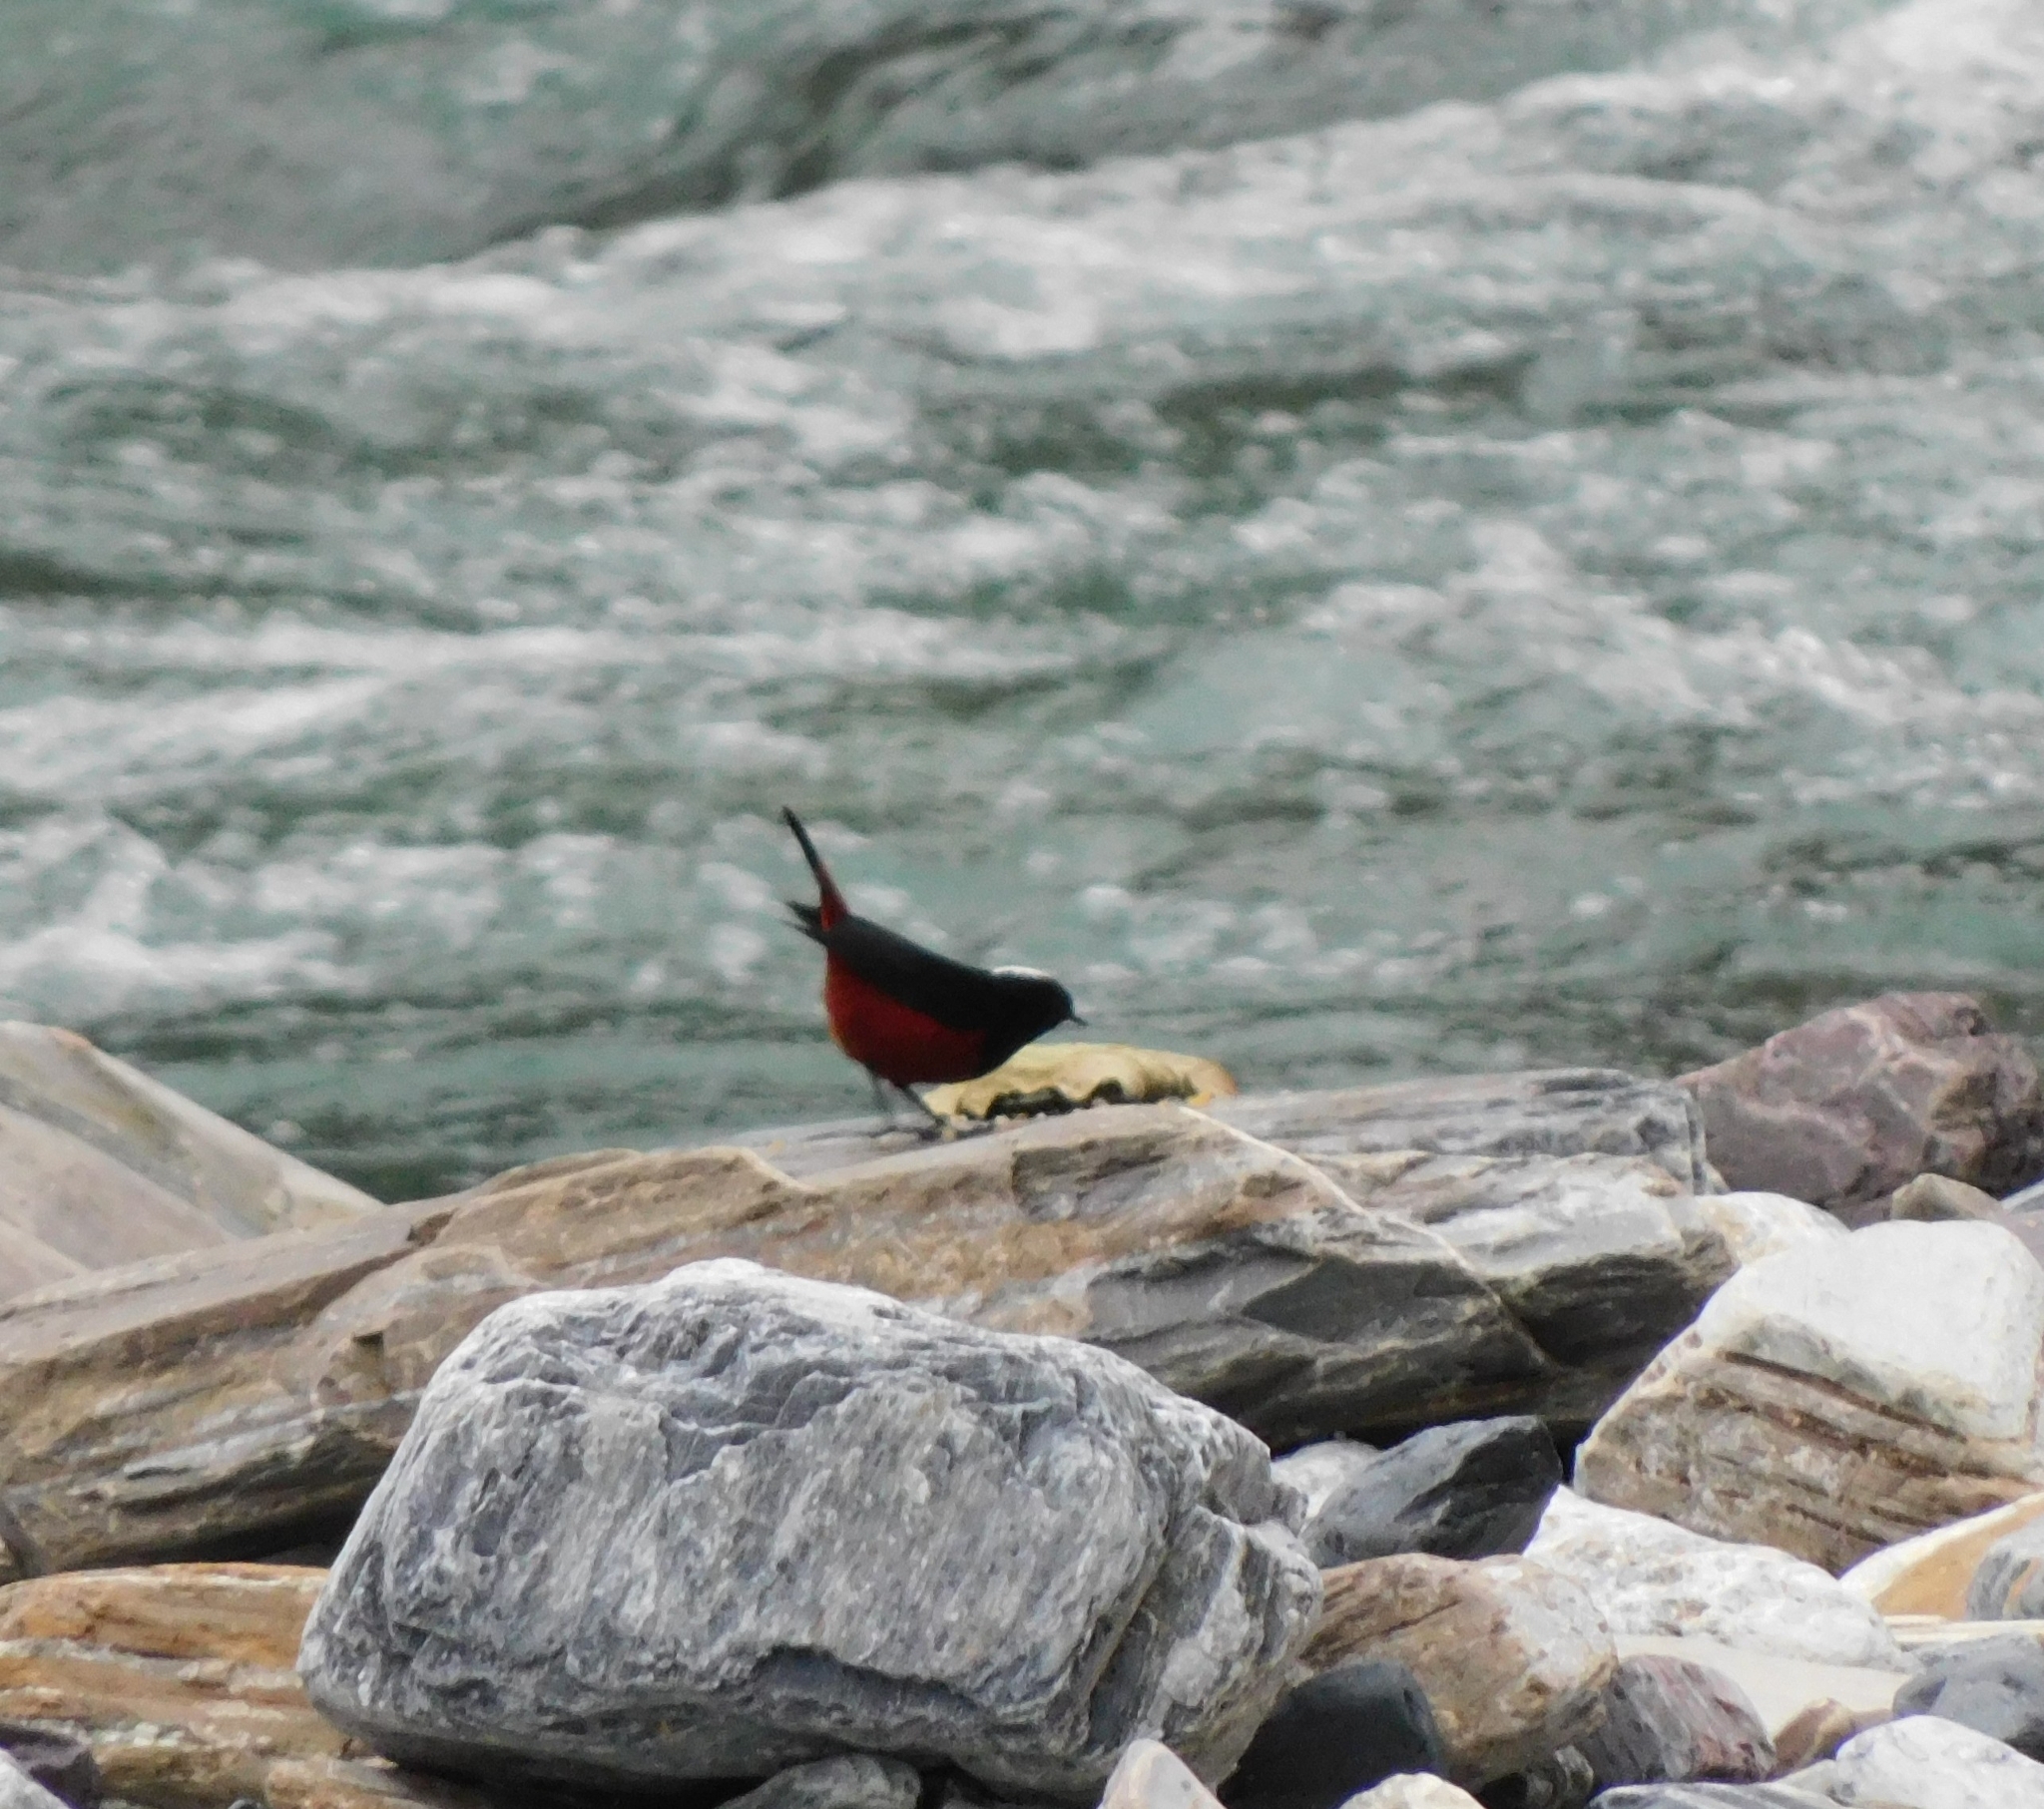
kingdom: Animalia
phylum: Chordata
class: Aves
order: Passeriformes
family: Muscicapidae
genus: Chaimarrornis
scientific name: Chaimarrornis leucocephalus
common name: White-capped redstart
